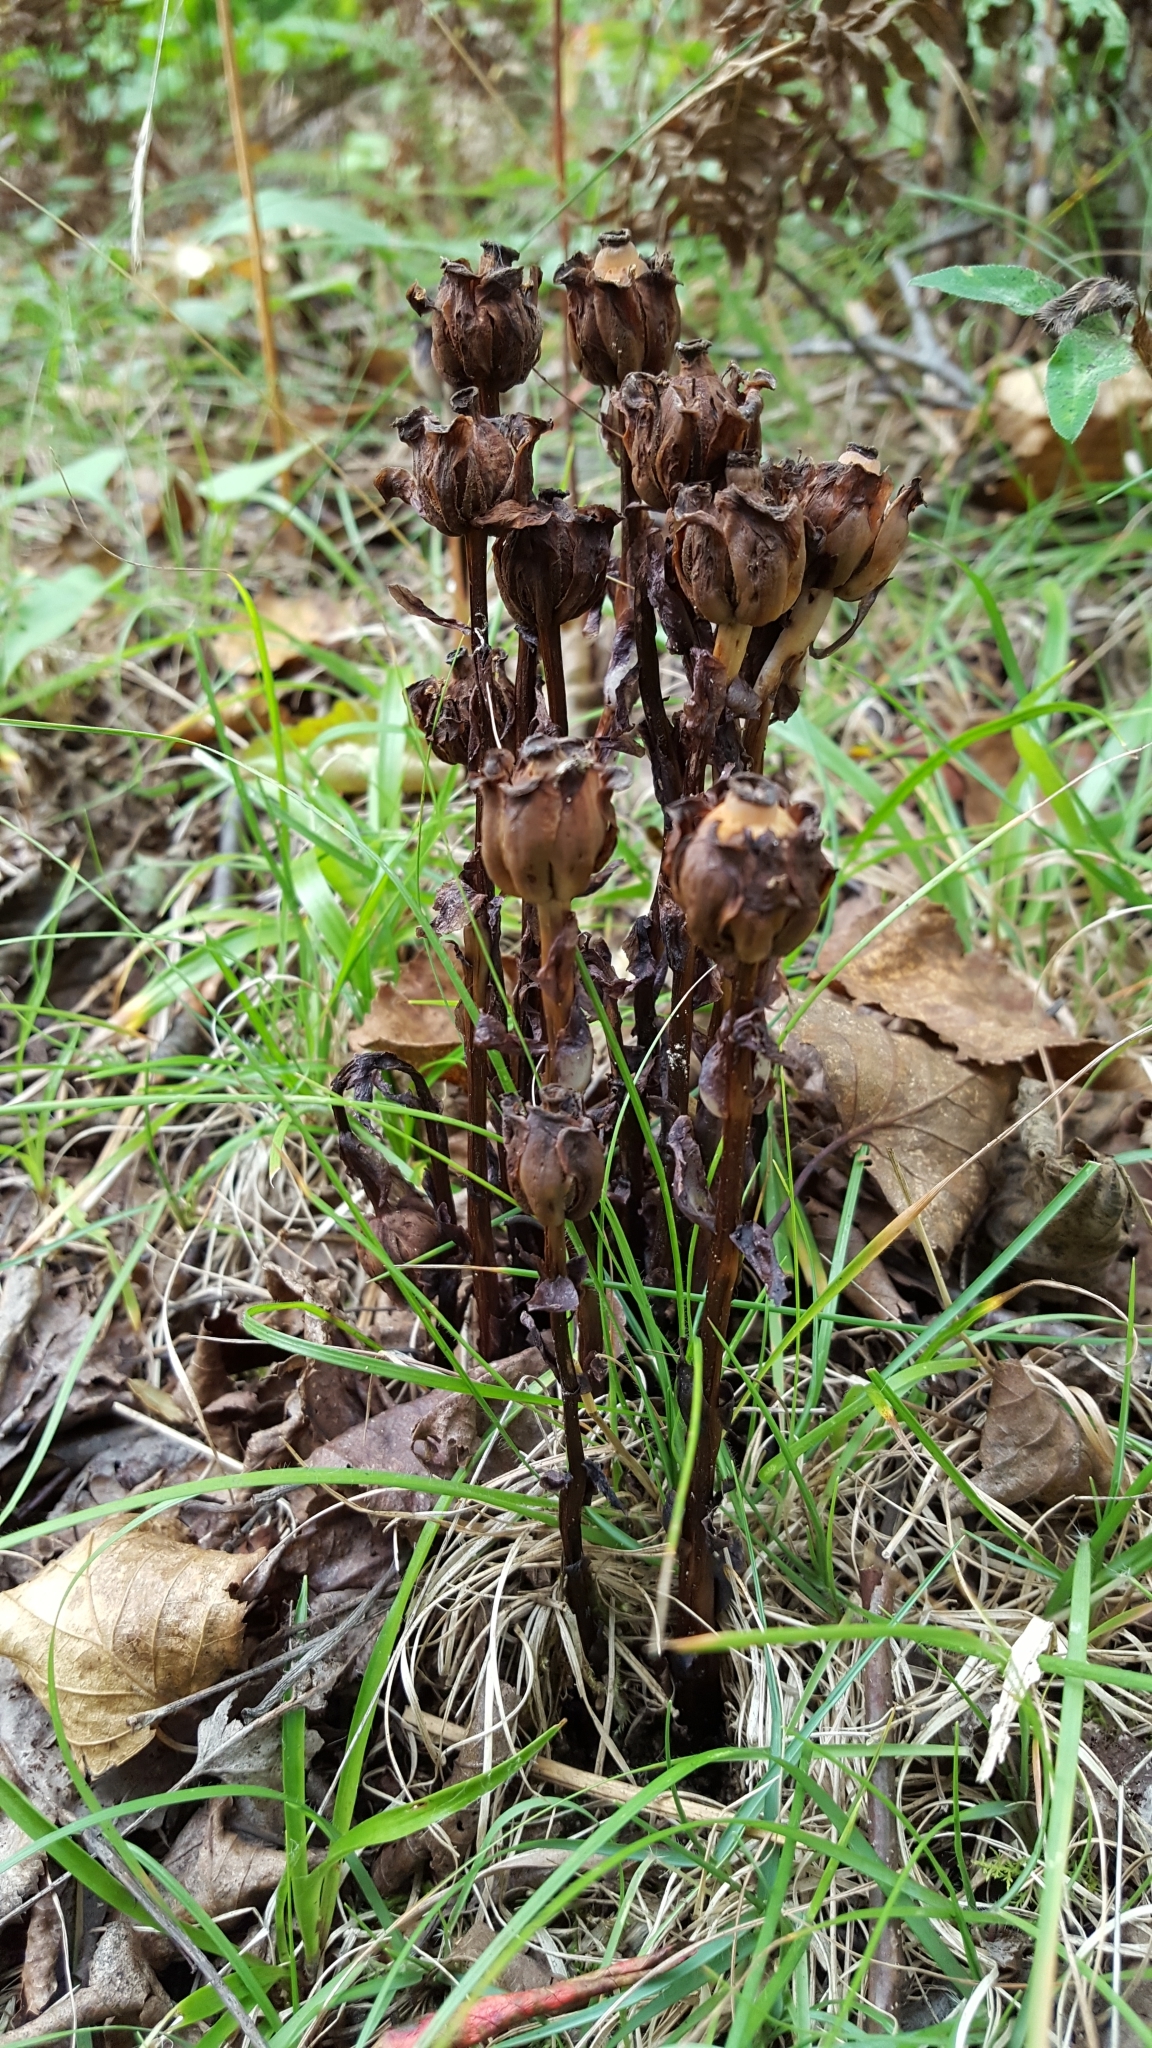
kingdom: Plantae
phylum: Tracheophyta
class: Magnoliopsida
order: Ericales
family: Ericaceae
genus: Monotropa
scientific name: Monotropa uniflora
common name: Convulsion root
